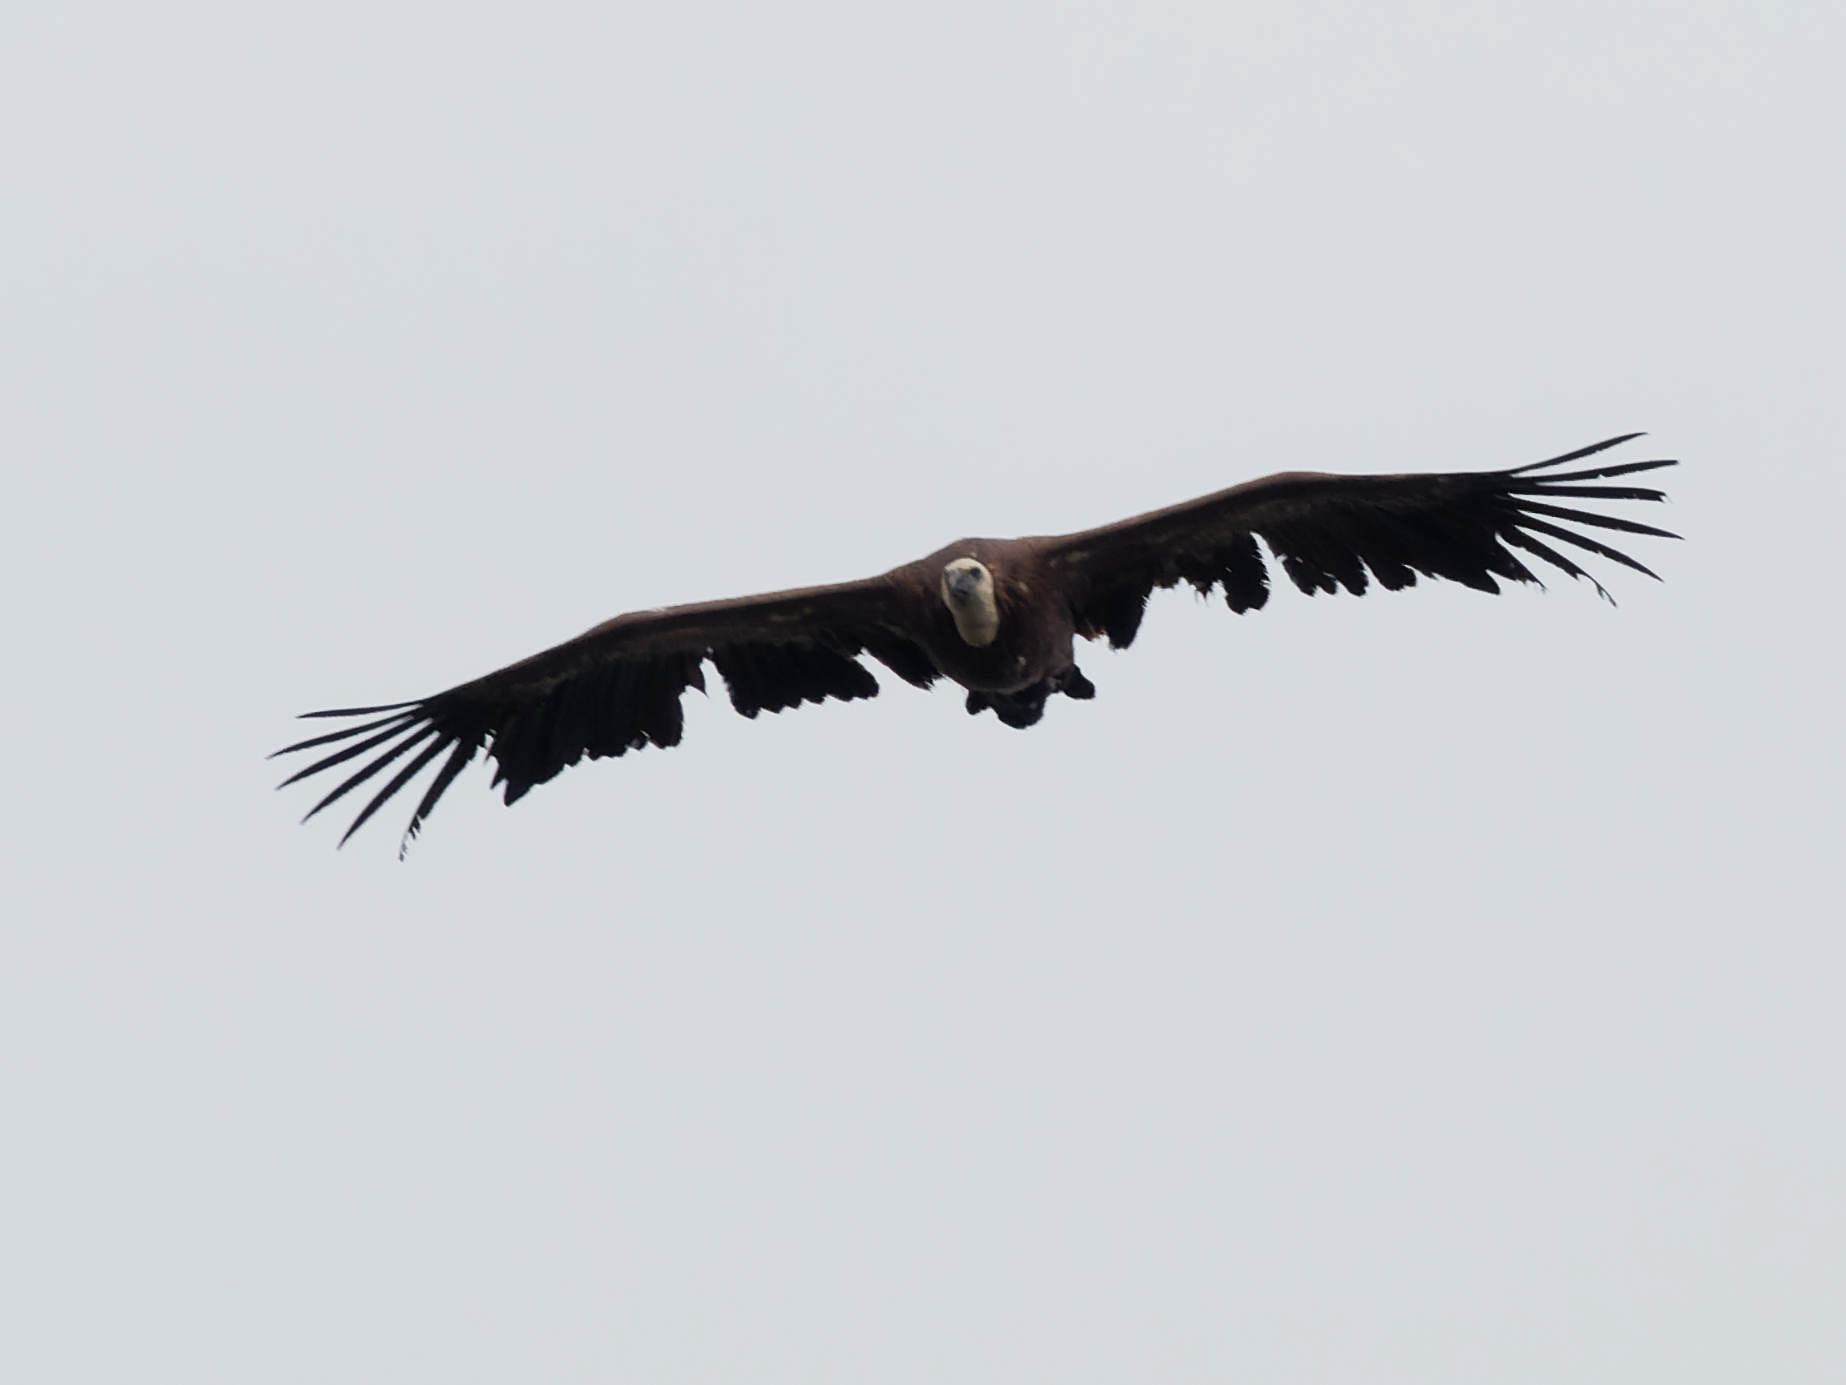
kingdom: Animalia
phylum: Chordata
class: Aves
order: Accipitriformes
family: Accipitridae
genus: Gyps
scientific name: Gyps fulvus
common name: Griffon vulture
